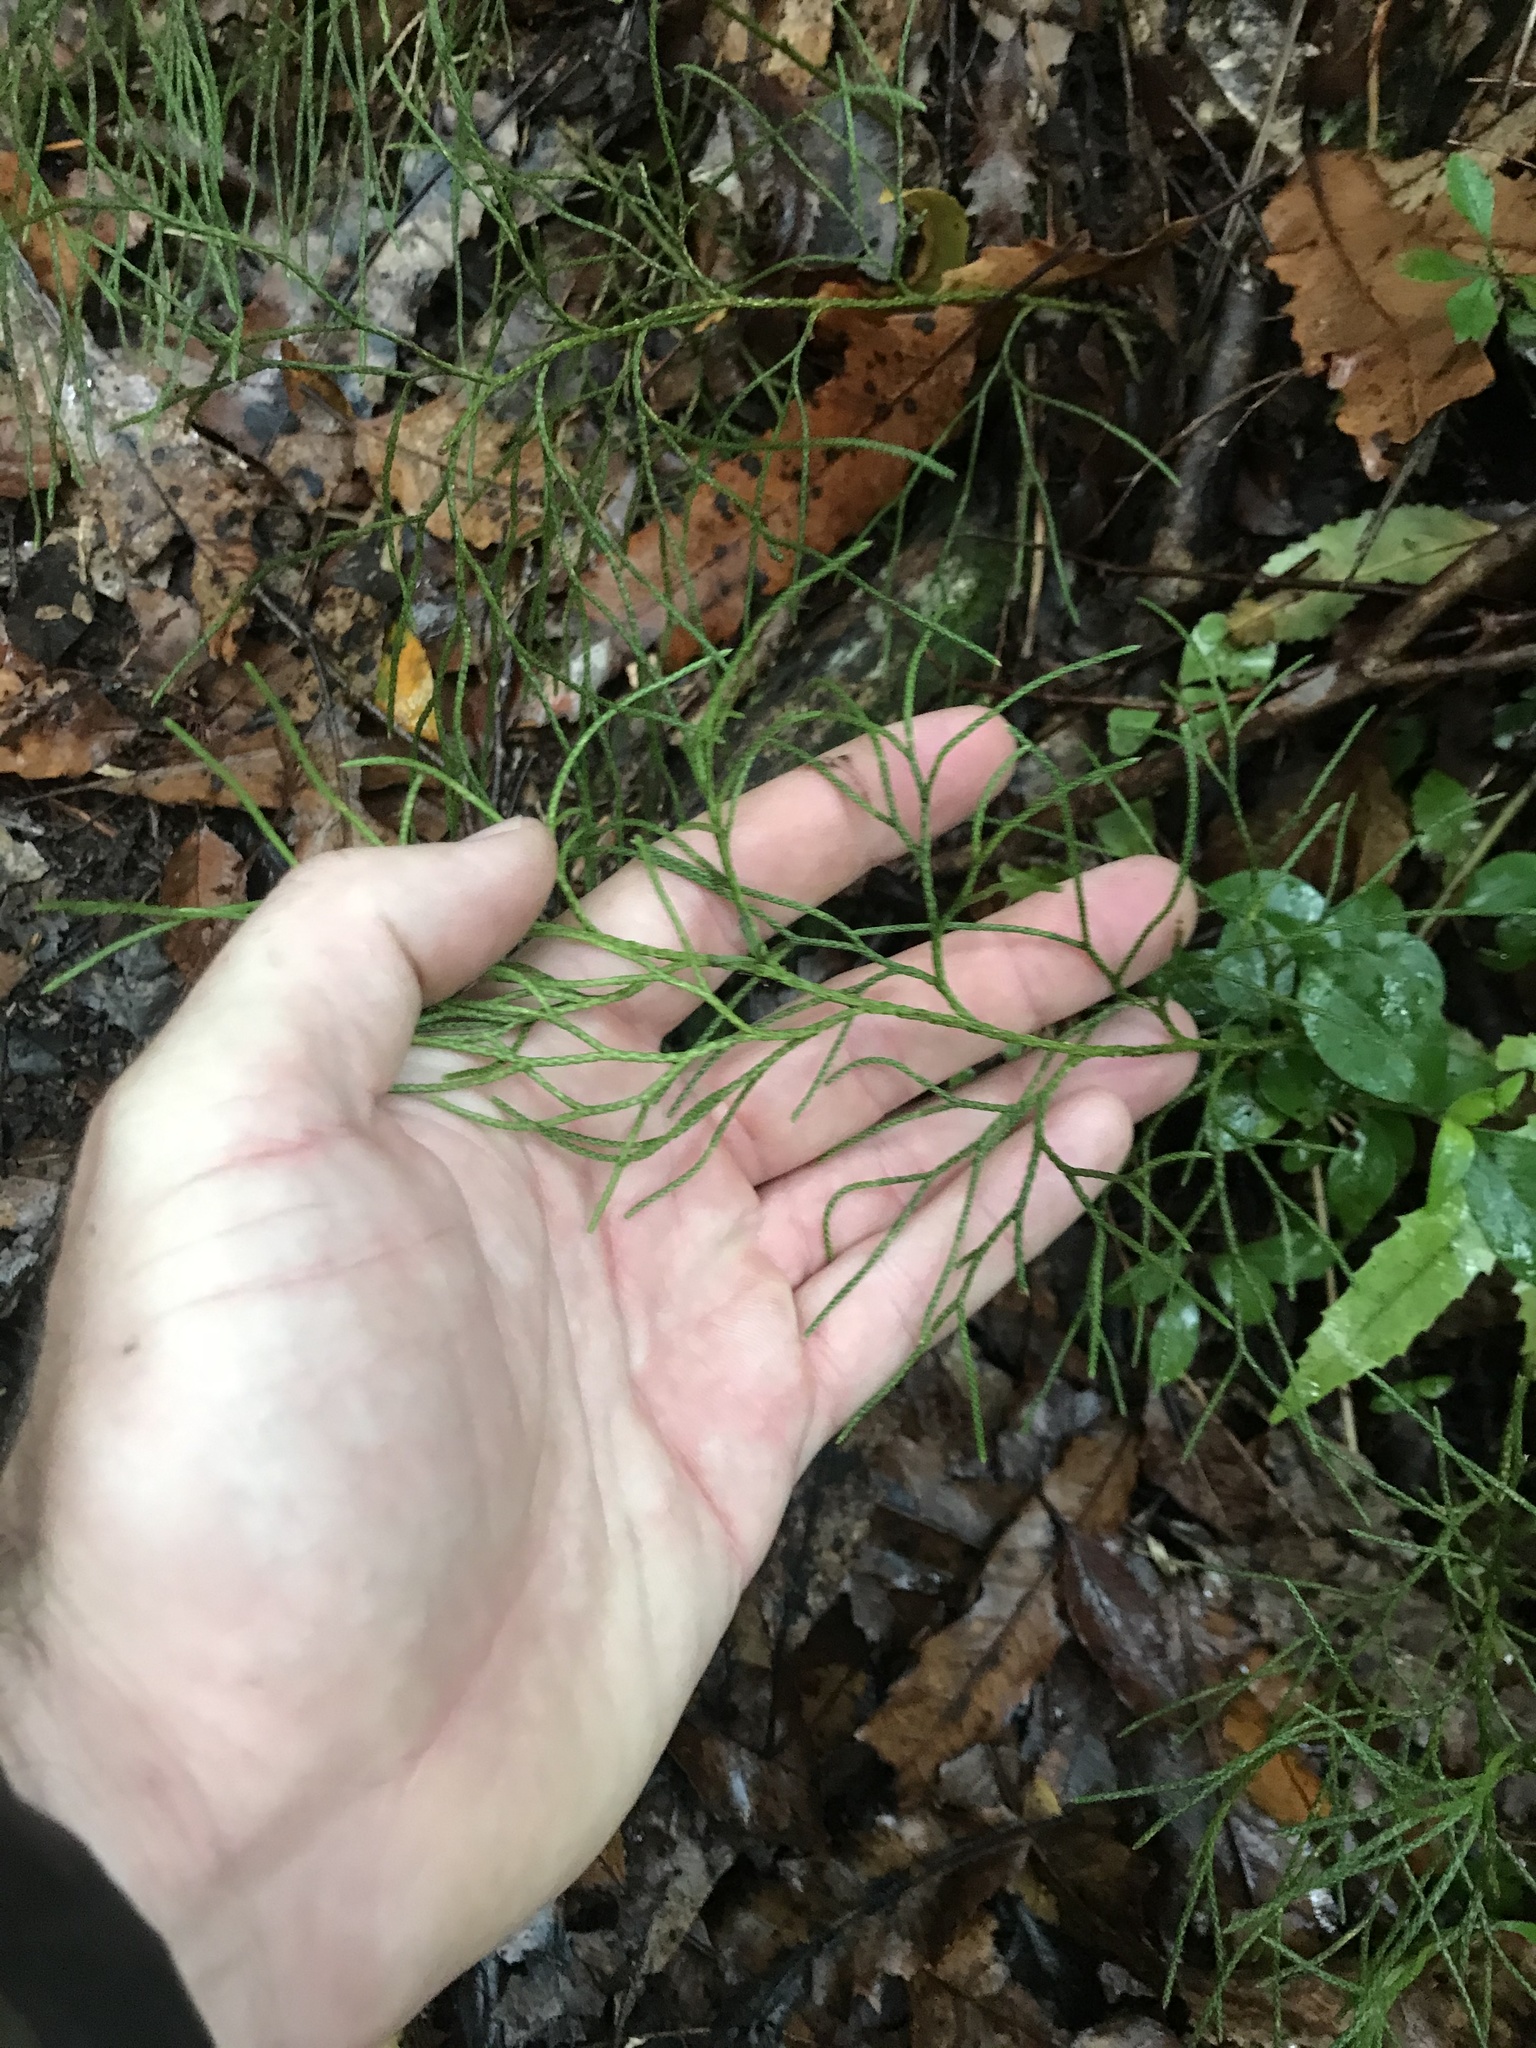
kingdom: Plantae
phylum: Tracheophyta
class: Lycopodiopsida
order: Lycopodiales
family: Lycopodiaceae
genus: Pseudolycopodium
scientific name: Pseudolycopodium densum
